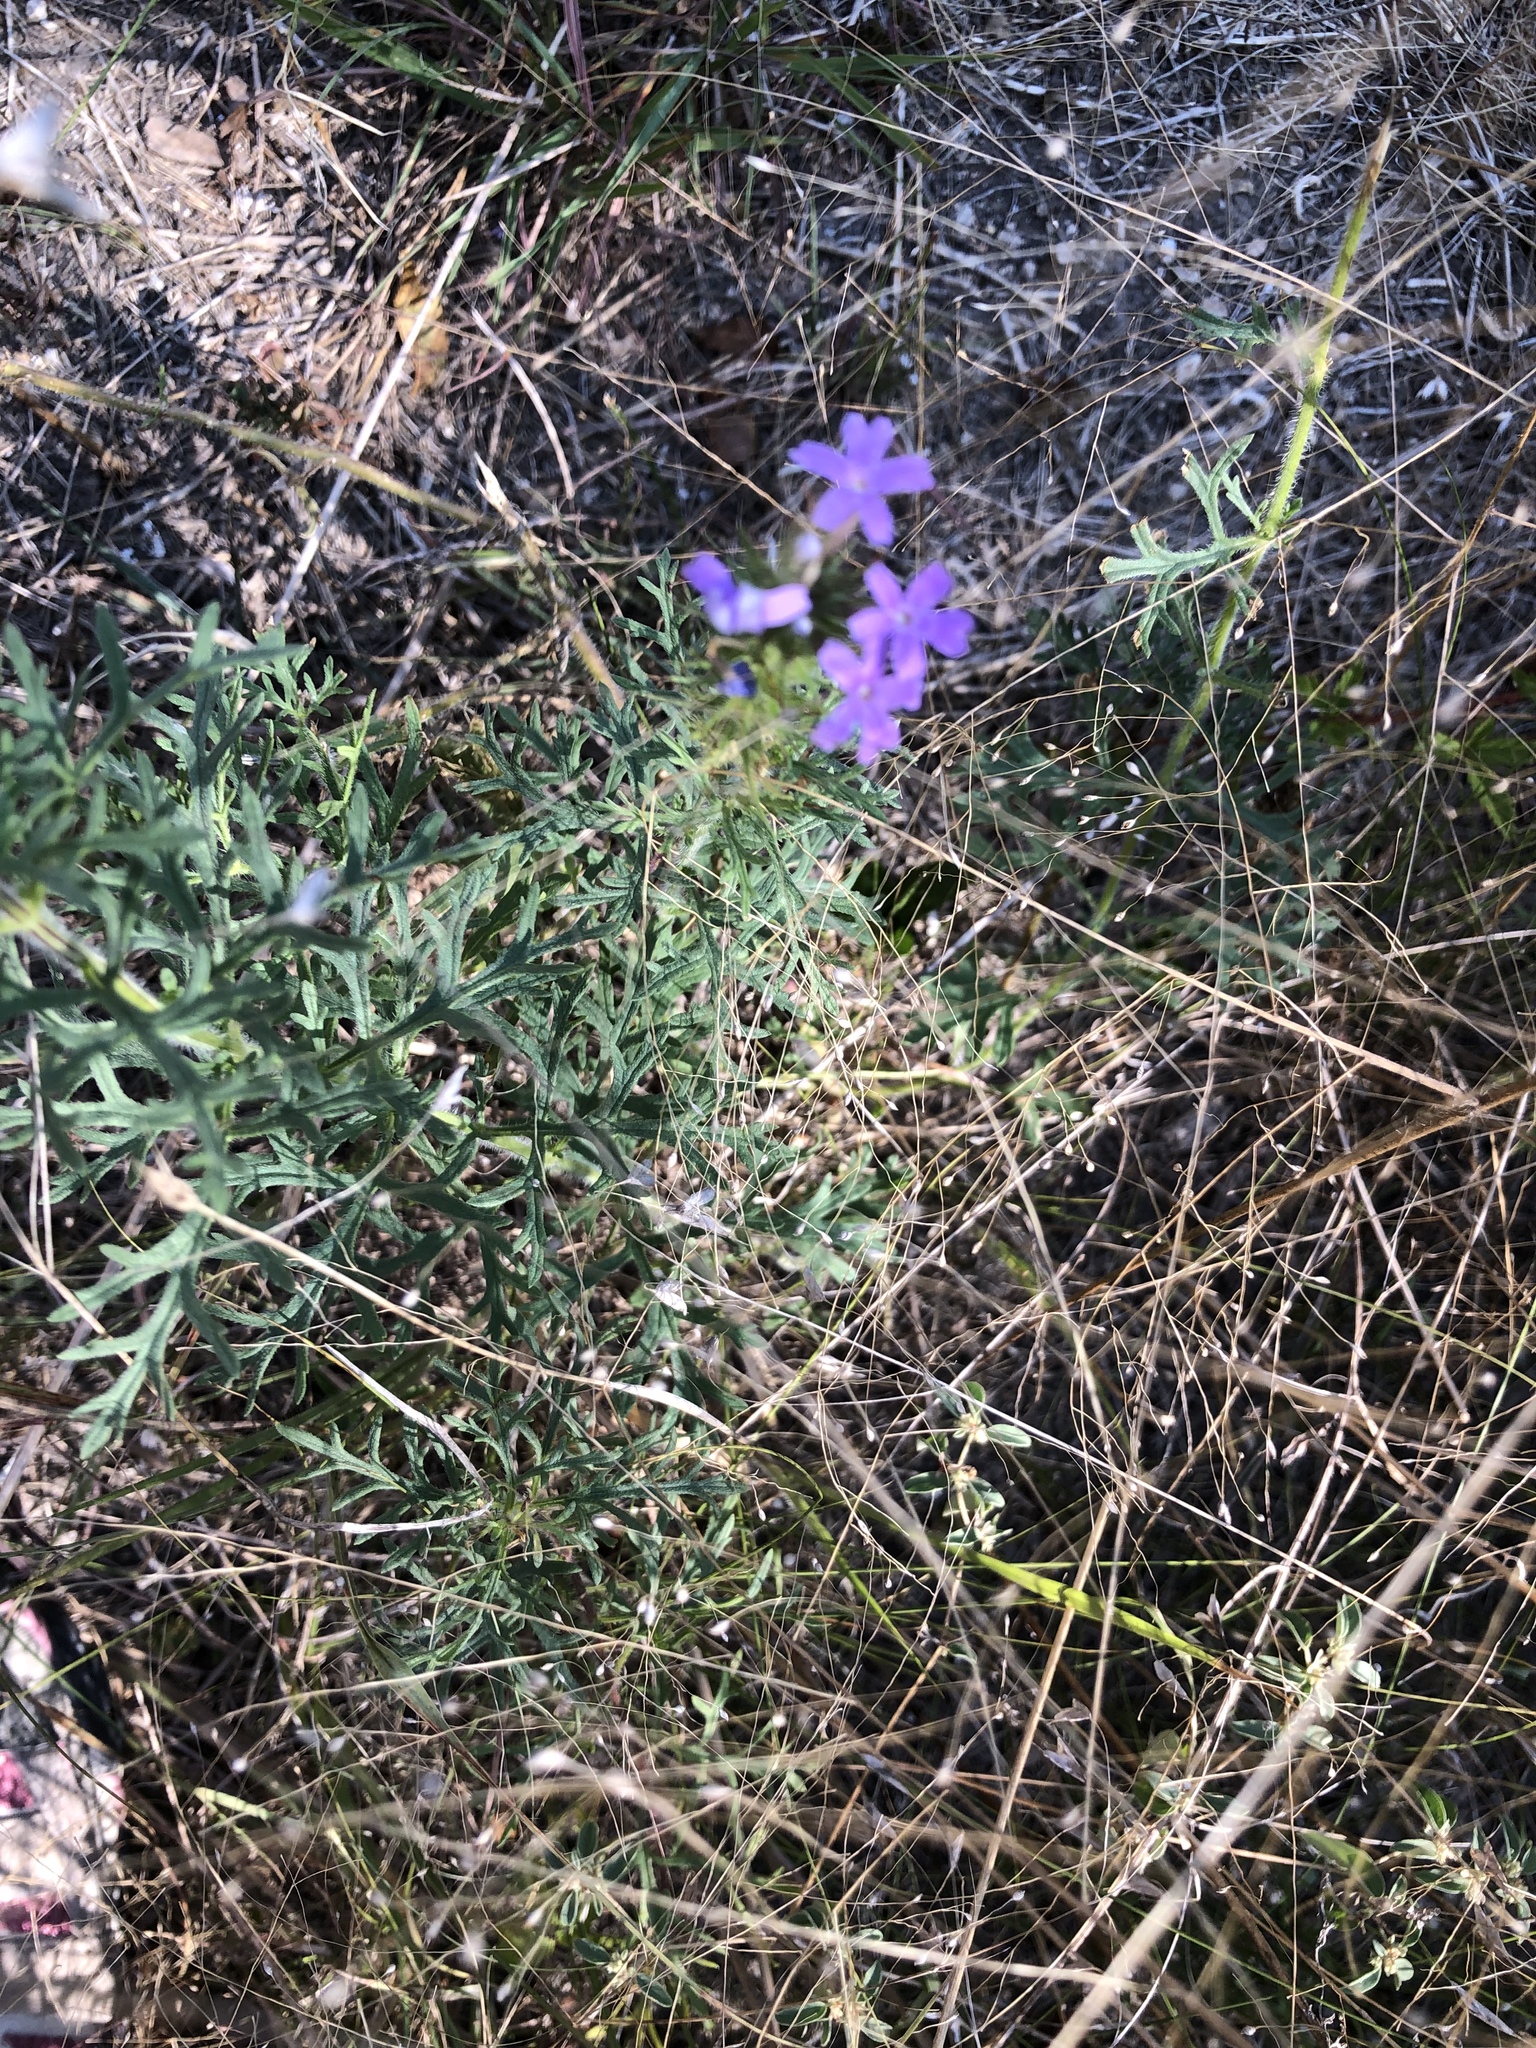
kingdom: Plantae
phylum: Tracheophyta
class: Magnoliopsida
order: Lamiales
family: Verbenaceae
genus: Verbena
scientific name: Verbena bipinnatifida
